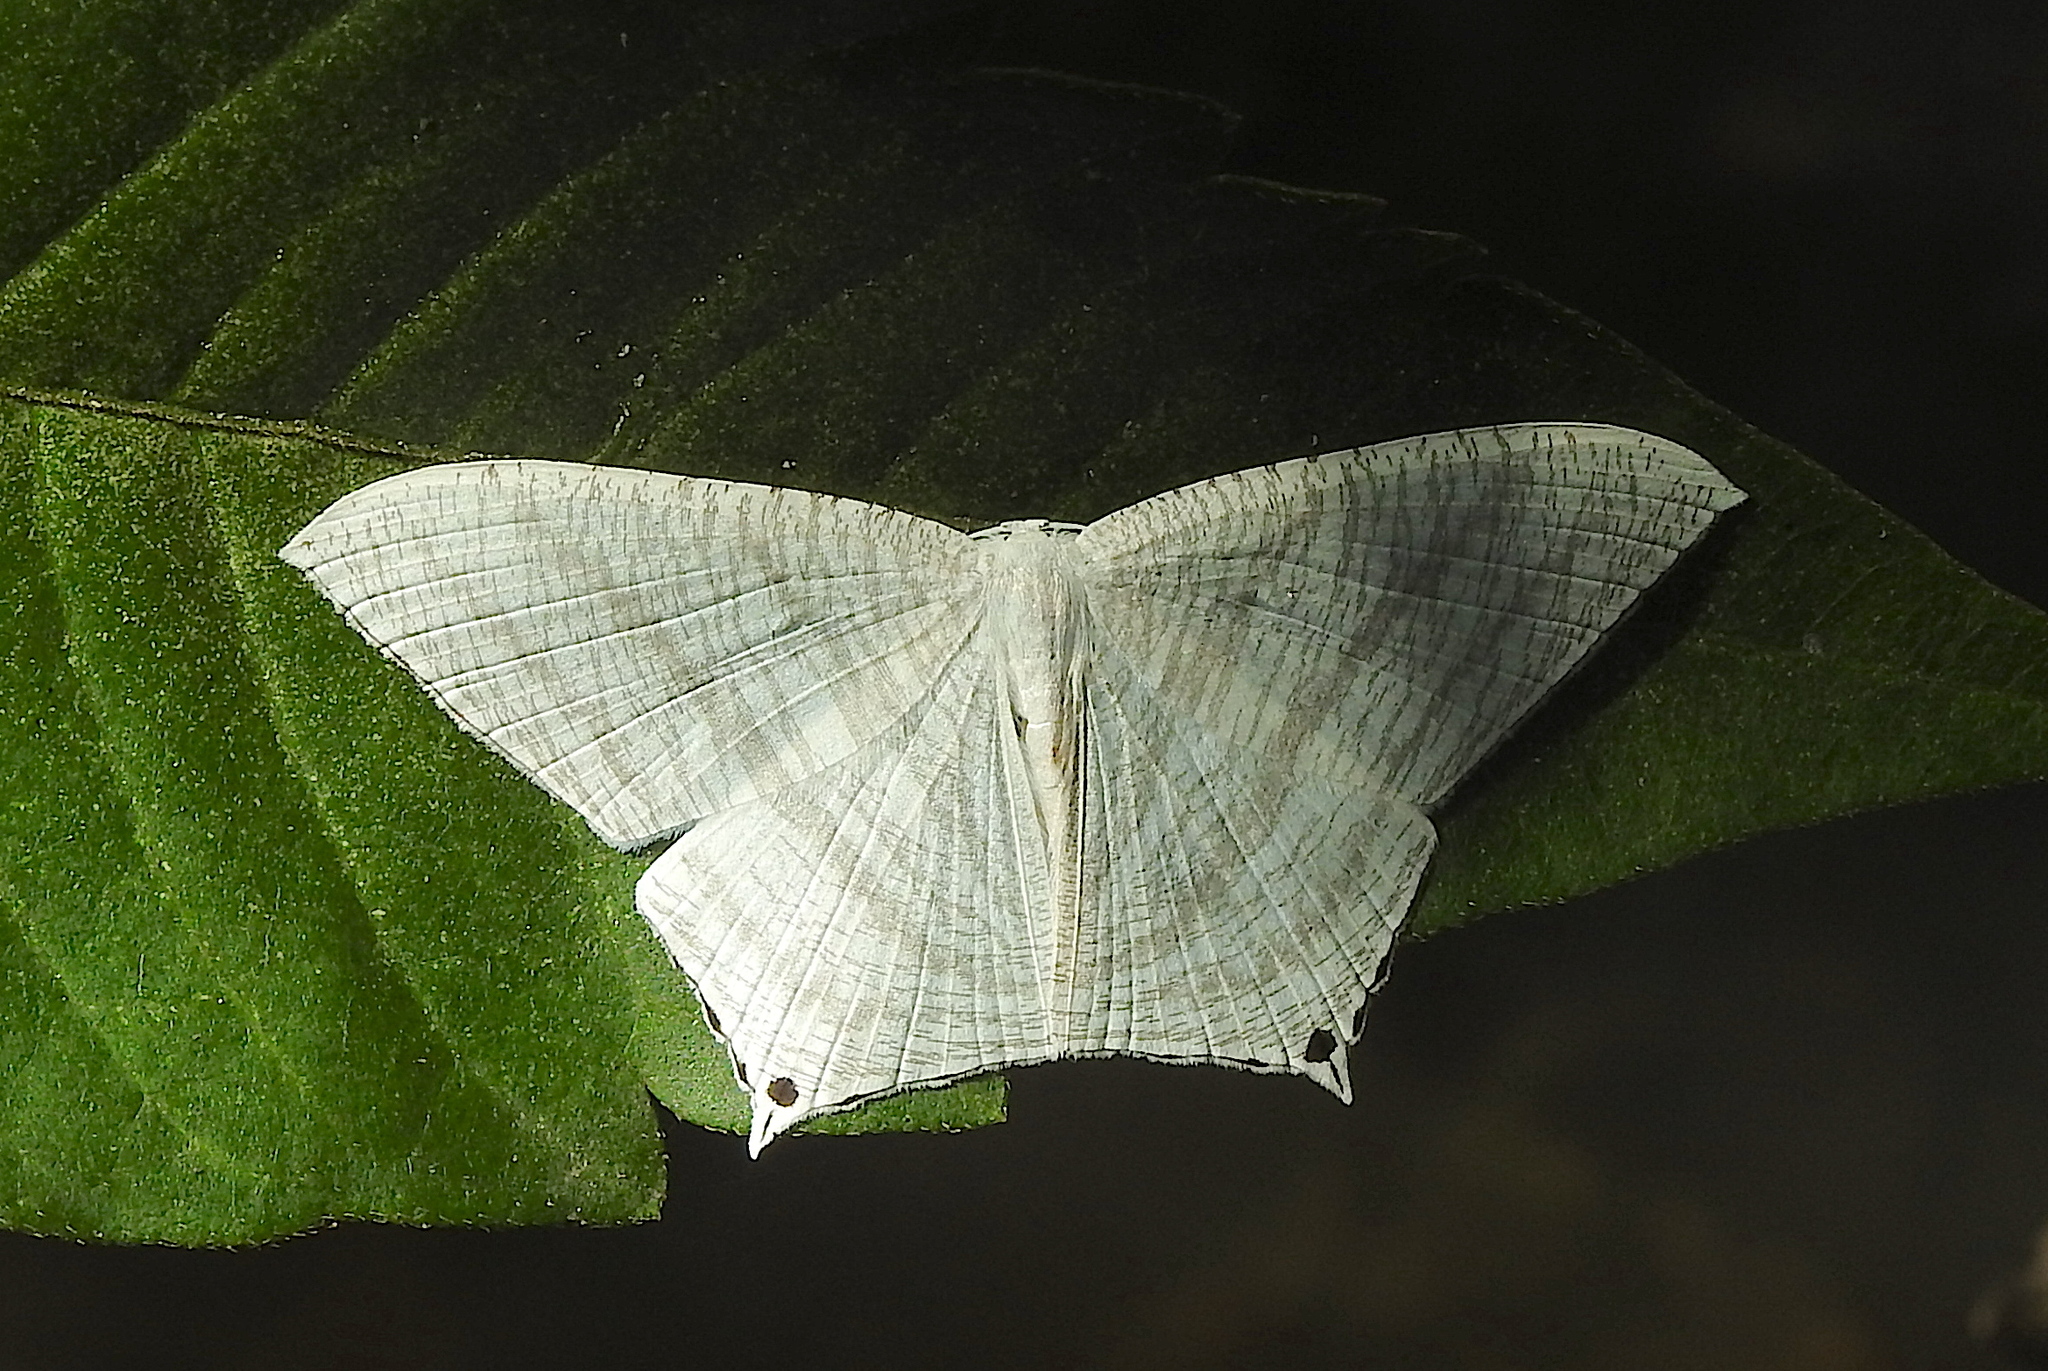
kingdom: Animalia
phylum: Arthropoda
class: Insecta
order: Lepidoptera
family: Uraniidae
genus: Micronia
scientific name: Micronia aculeata
